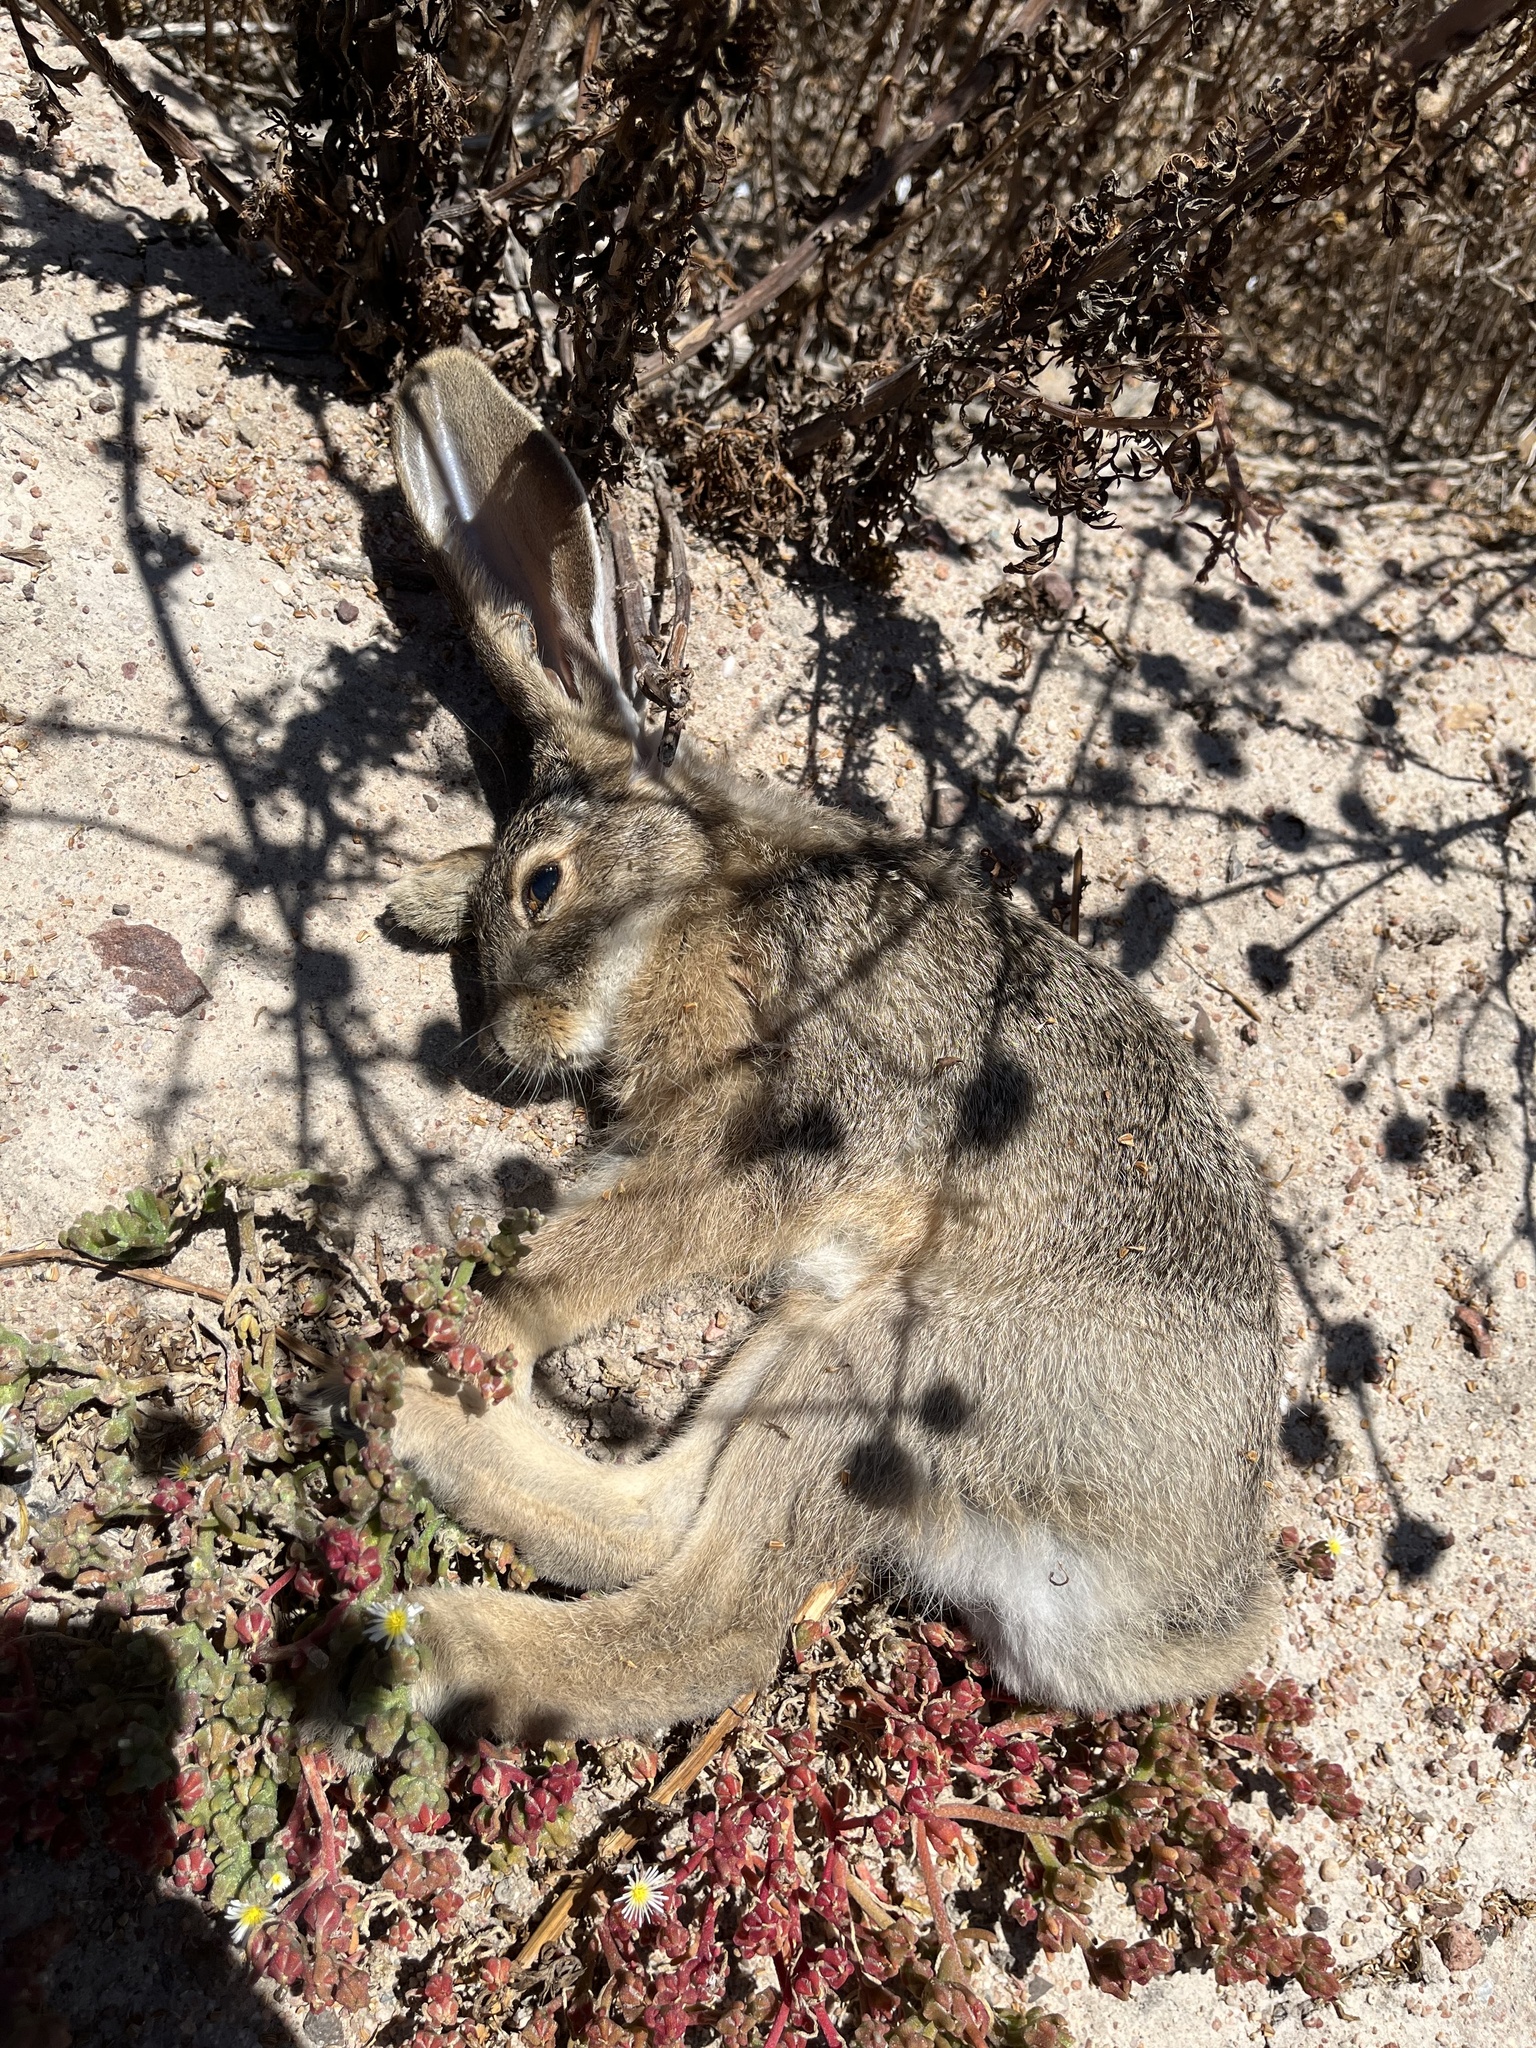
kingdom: Animalia
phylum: Chordata
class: Mammalia
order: Lagomorpha
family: Leporidae
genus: Lepus
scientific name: Lepus californicus
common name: Black-tailed jackrabbit
